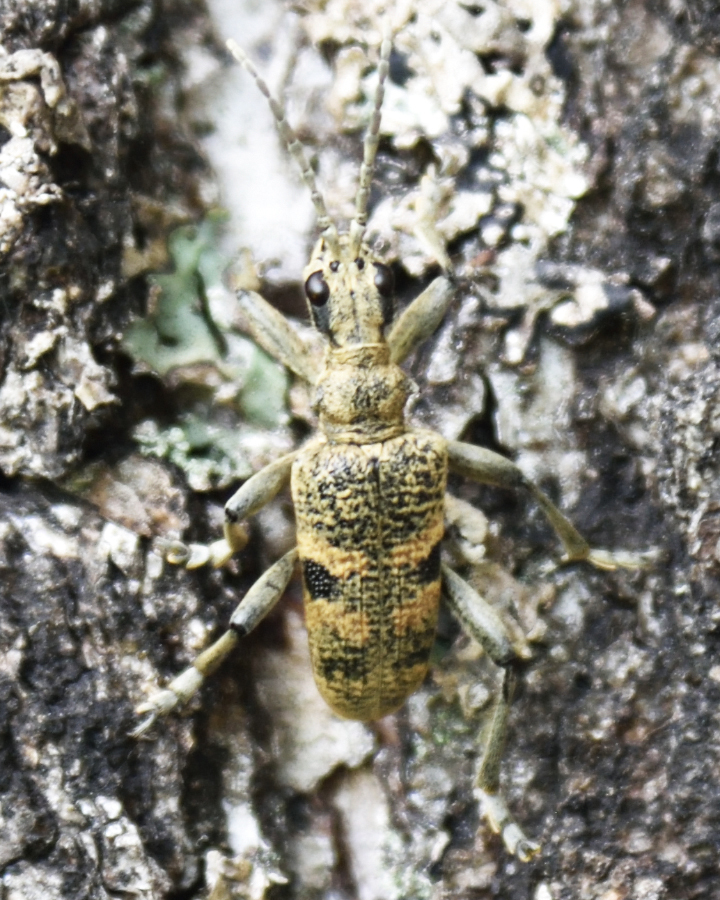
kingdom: Animalia
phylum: Arthropoda
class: Insecta
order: Coleoptera
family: Cerambycidae
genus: Rhagium
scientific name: Rhagium mordax
